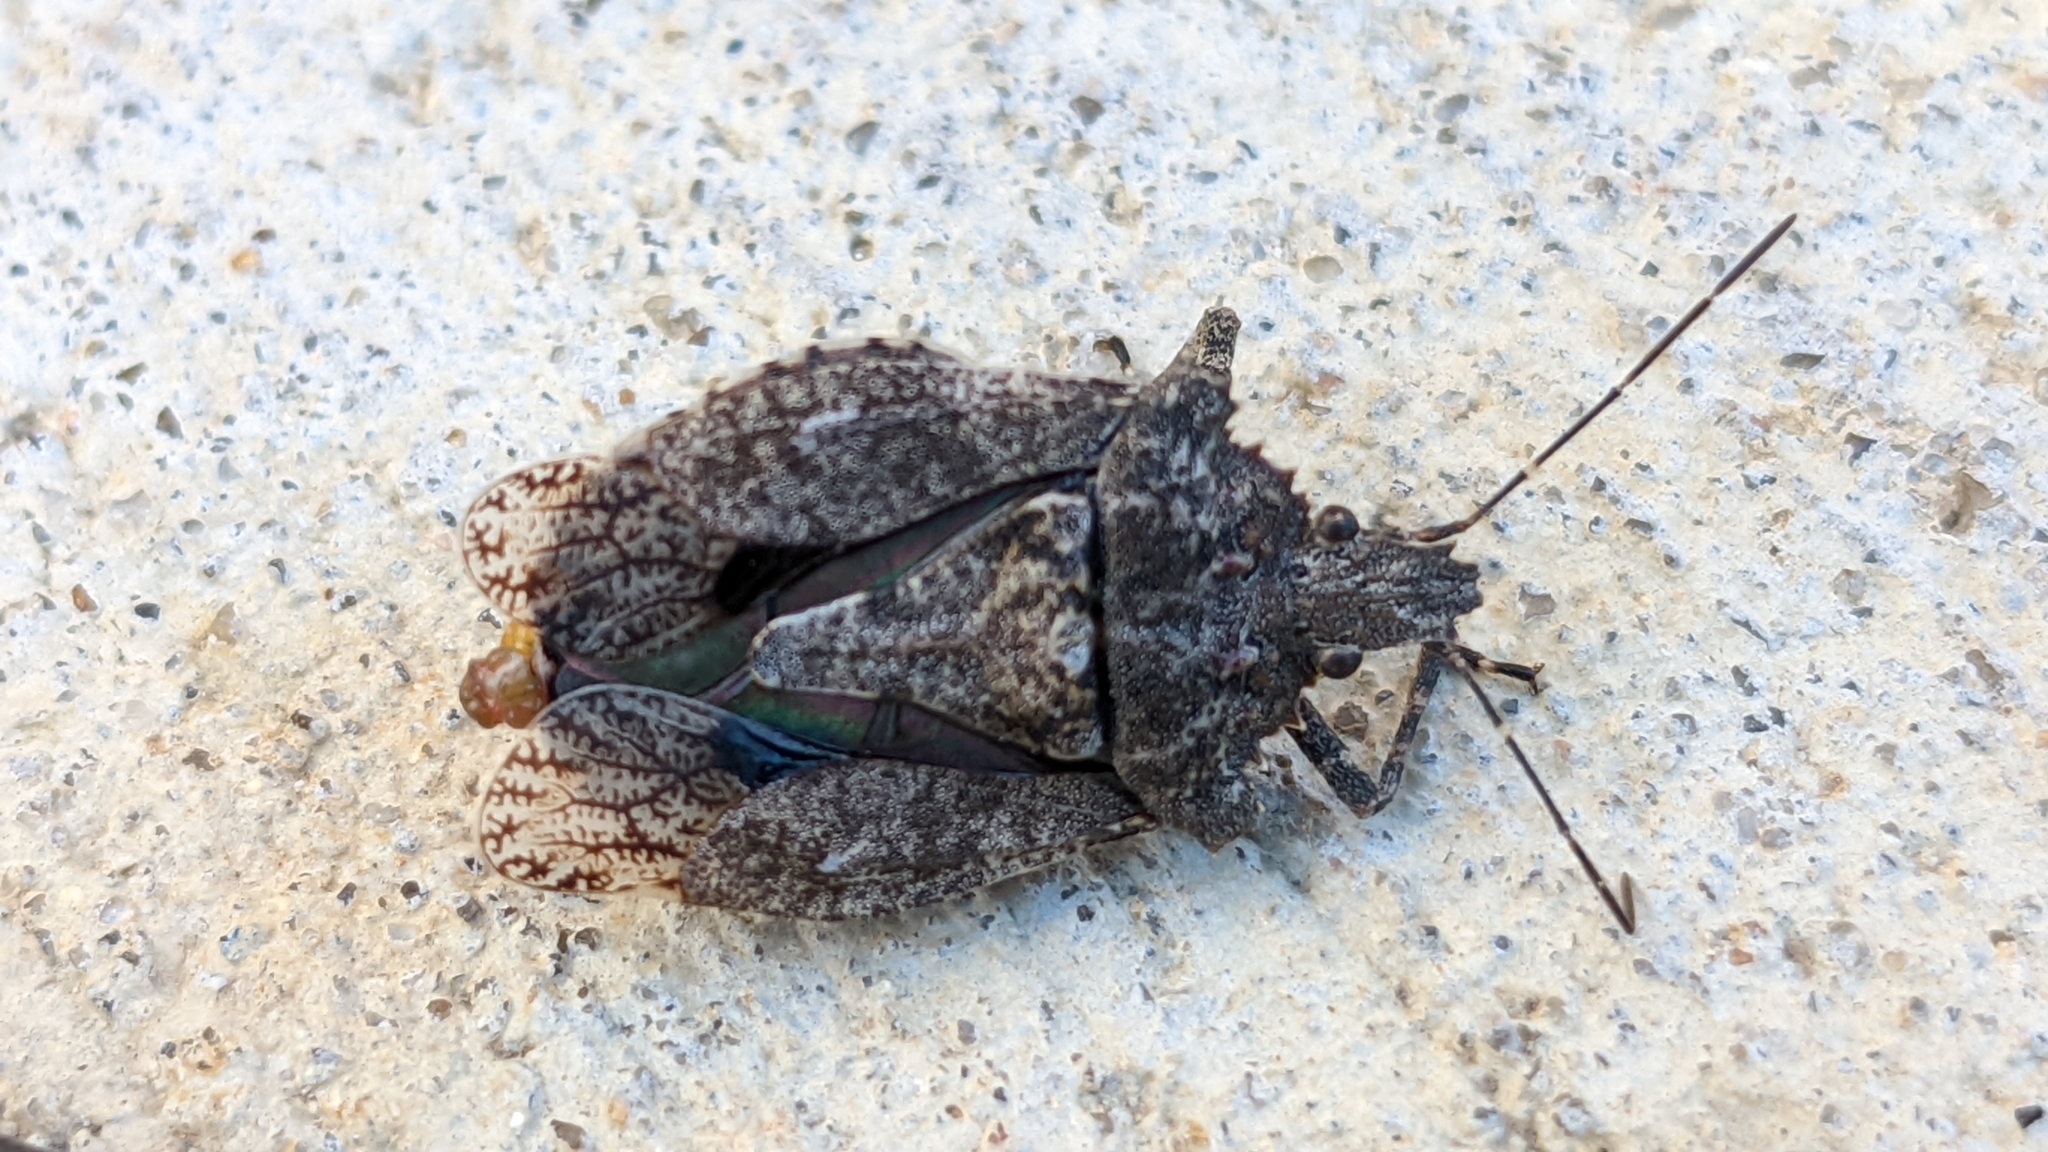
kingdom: Animalia
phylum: Arthropoda
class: Insecta
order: Hemiptera
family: Pentatomidae
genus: Brochymena
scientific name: Brochymena arborea
